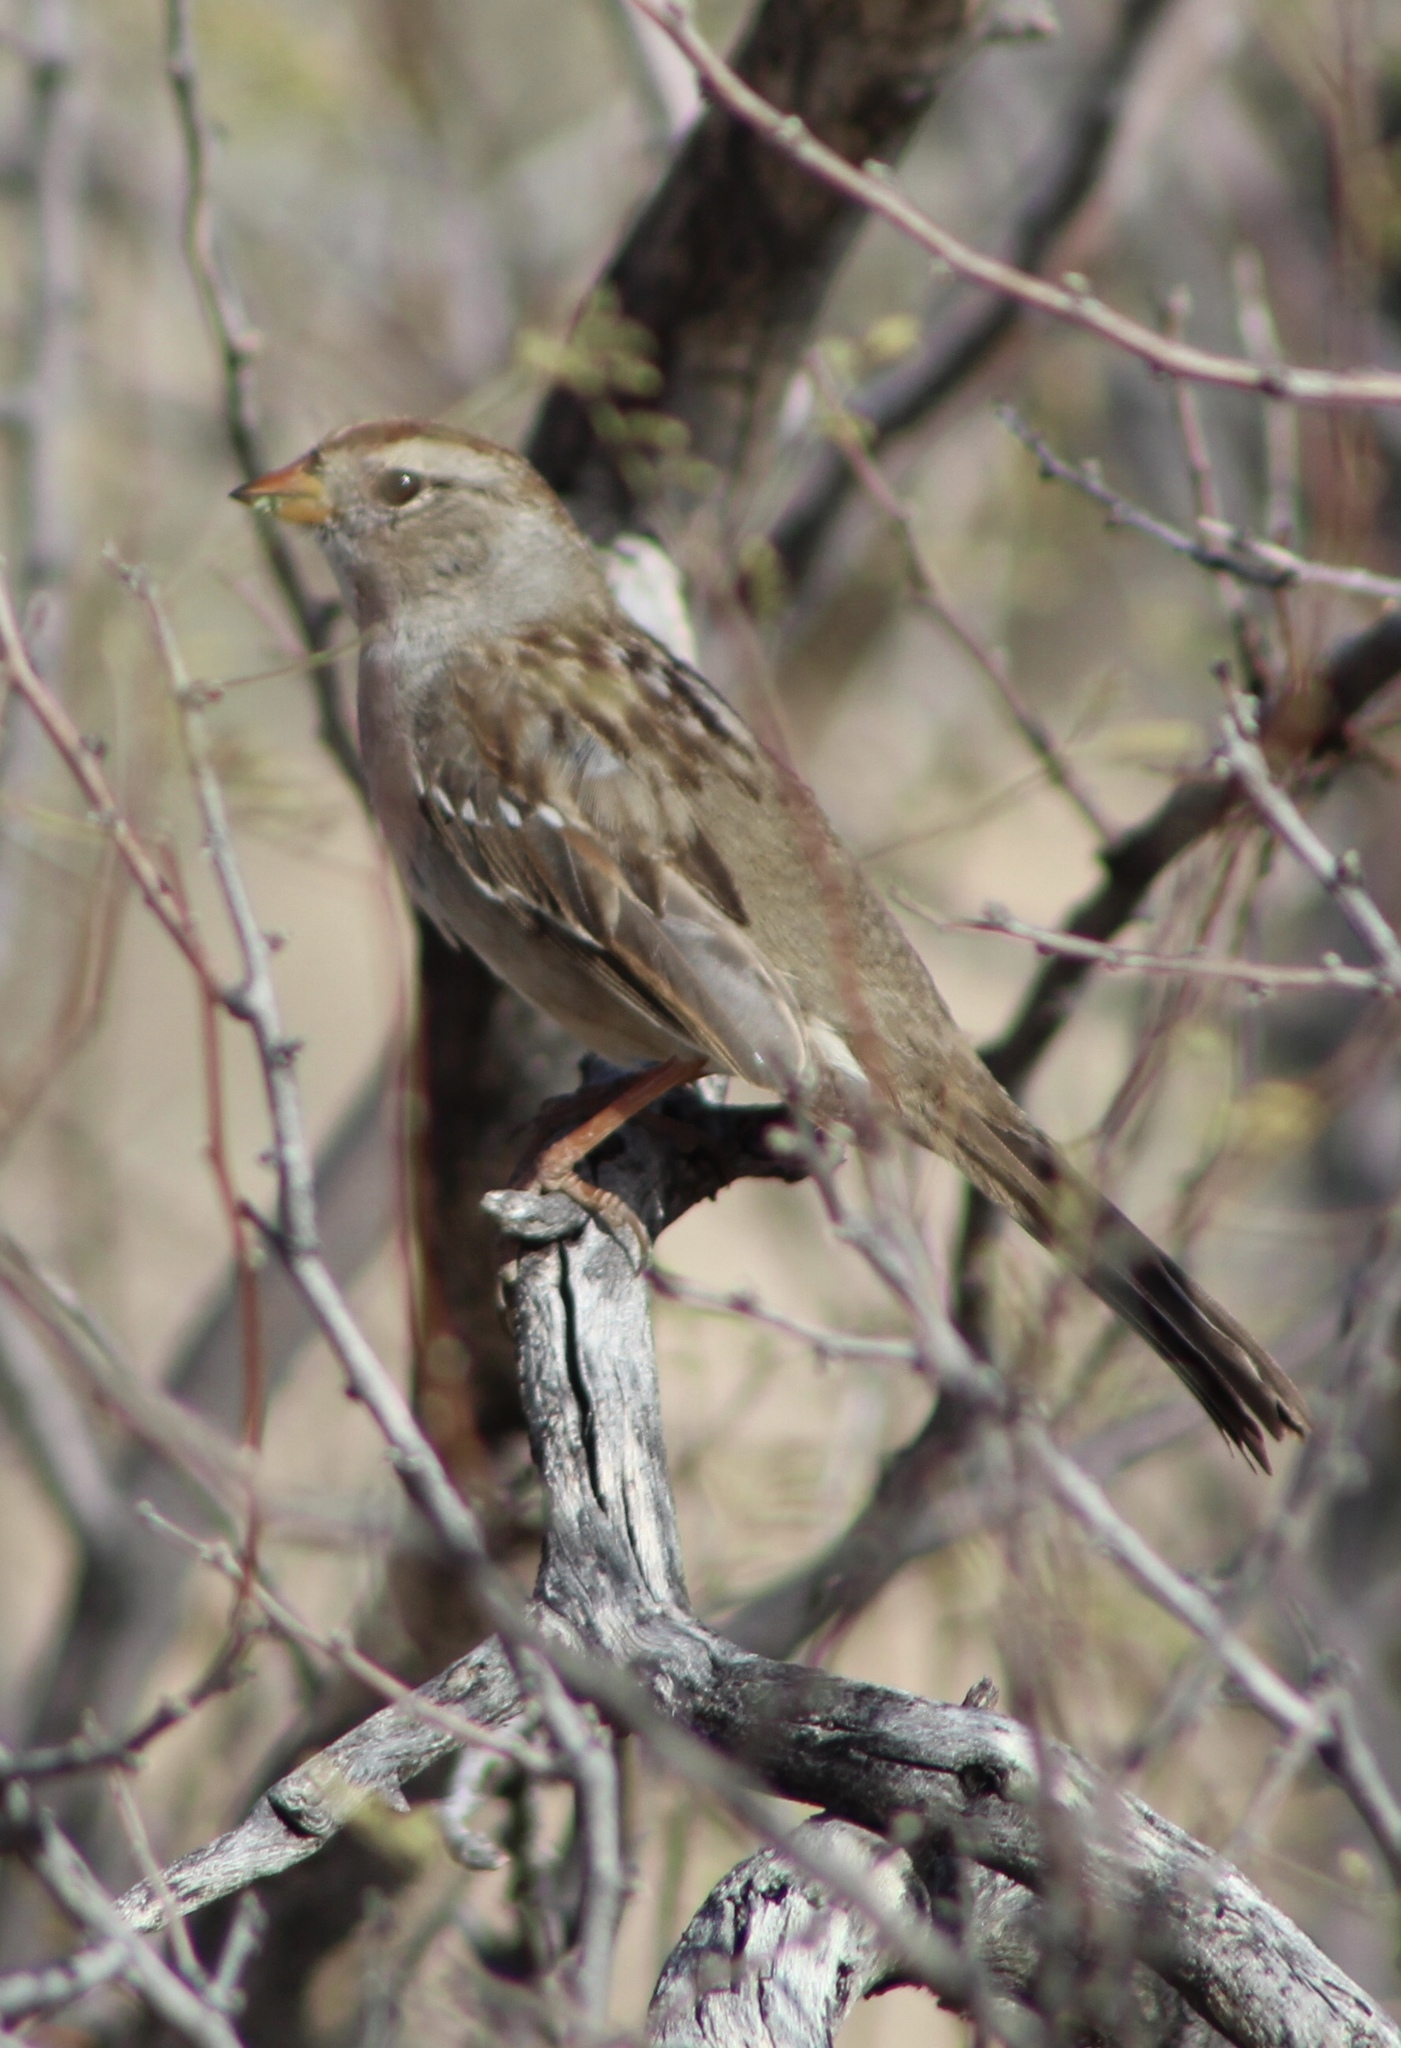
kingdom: Animalia
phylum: Chordata
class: Aves
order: Passeriformes
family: Passerellidae
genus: Zonotrichia
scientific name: Zonotrichia leucophrys
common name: White-crowned sparrow
